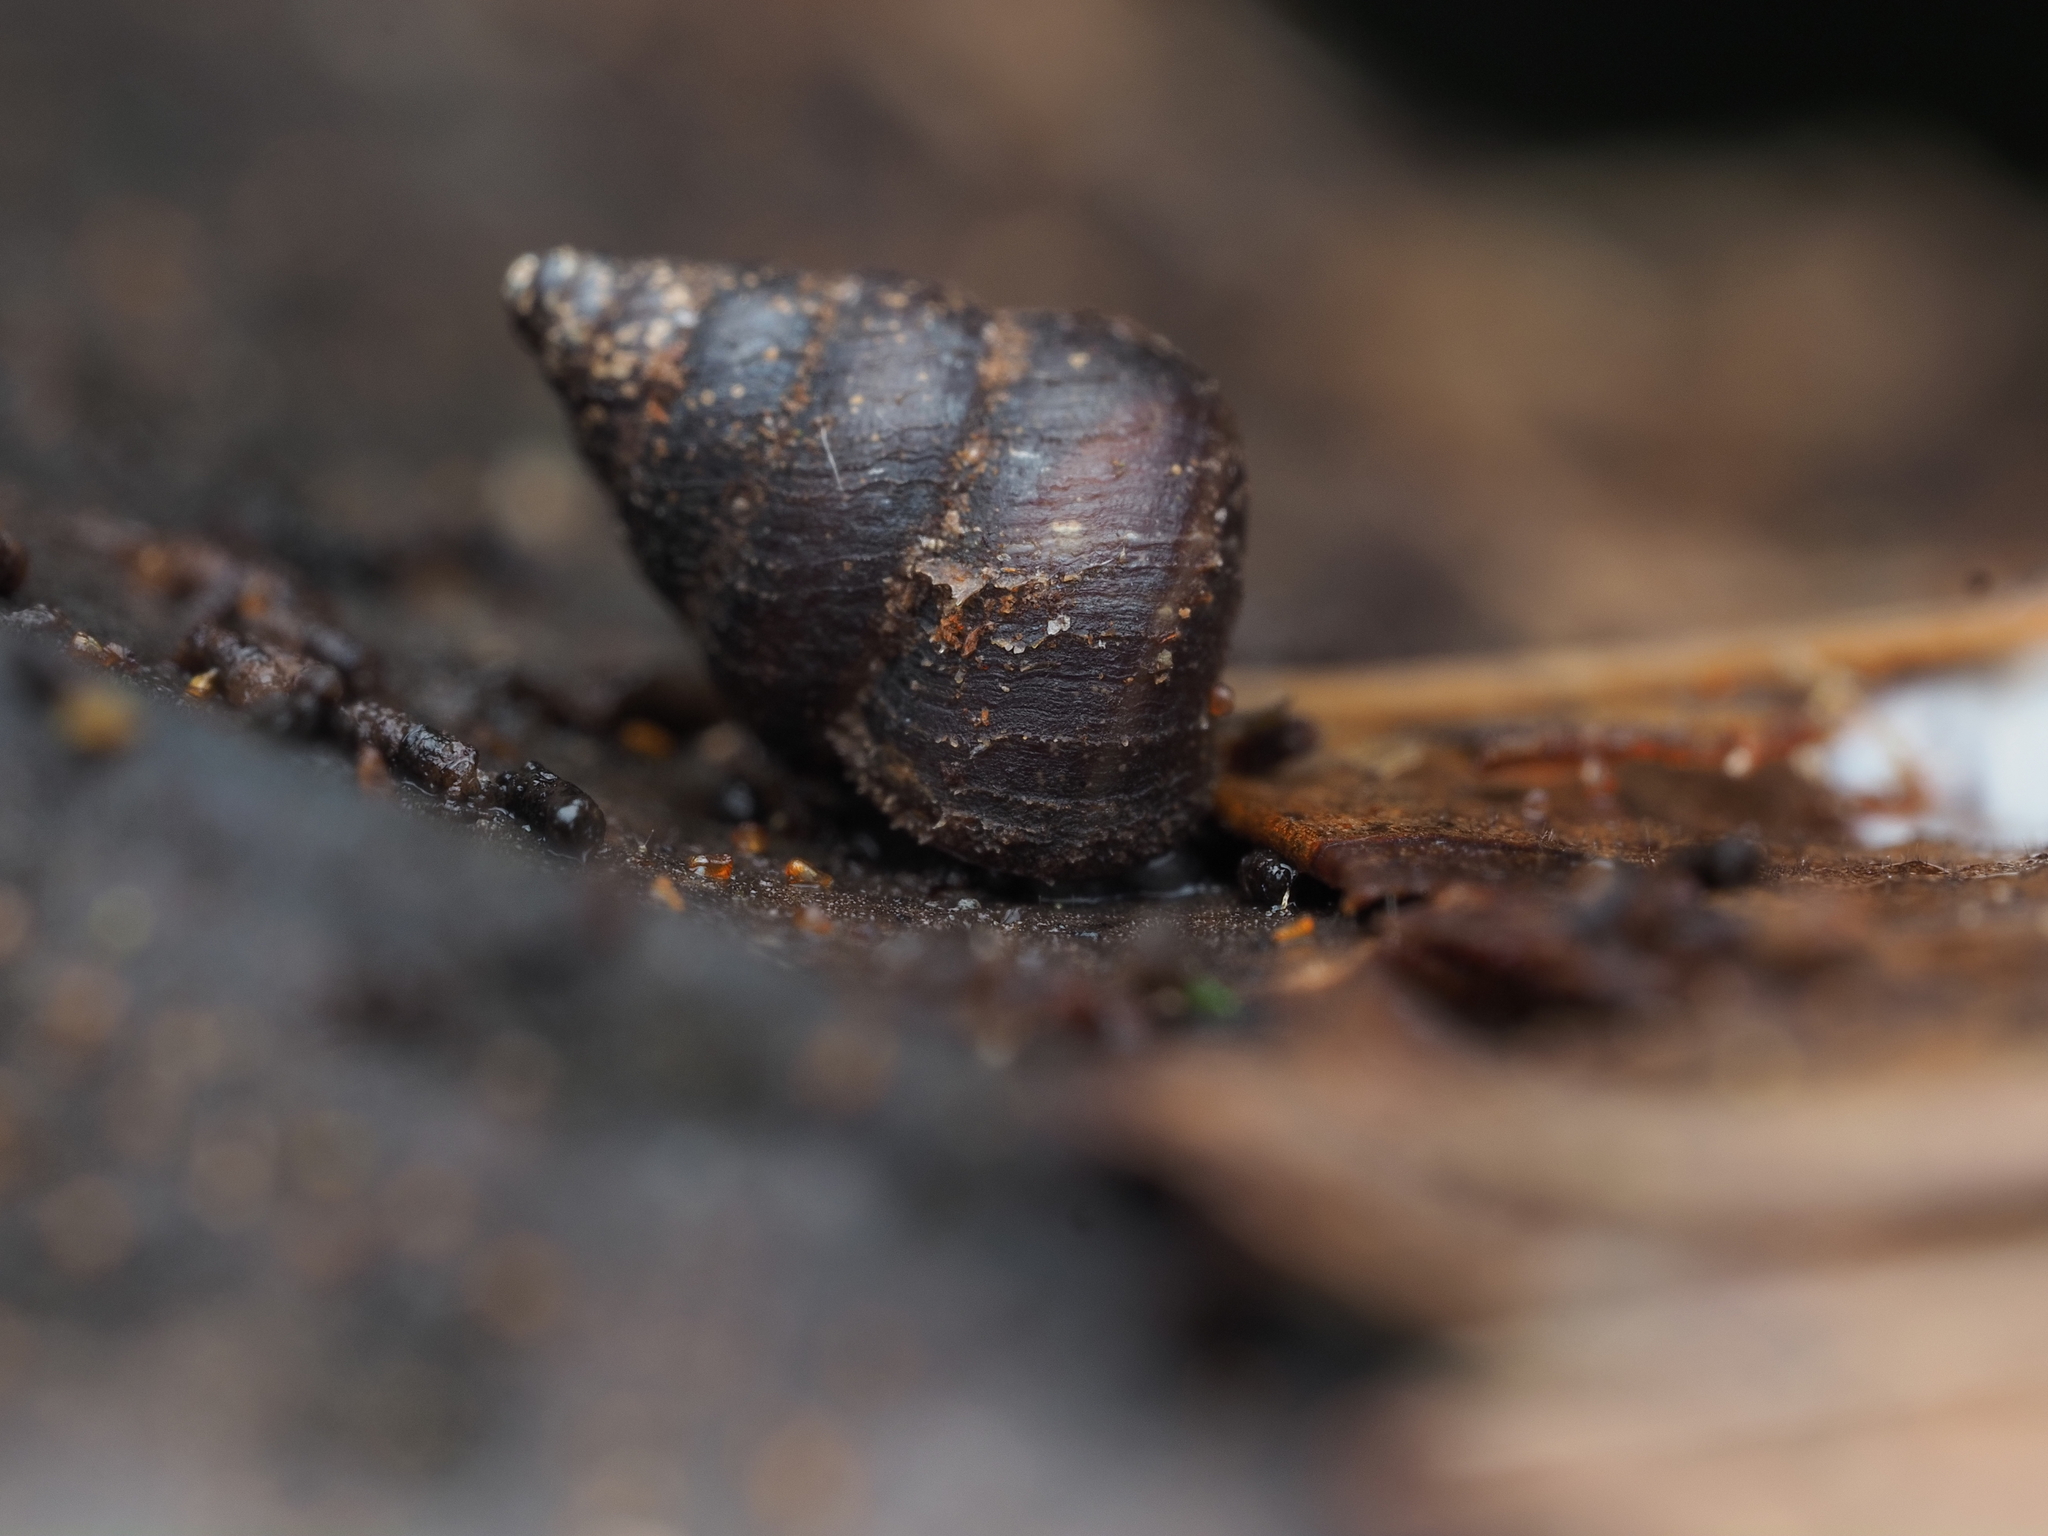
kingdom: Animalia
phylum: Mollusca
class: Gastropoda
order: Architaenioglossa
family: Pupinidae
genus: Cytora
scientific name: Cytora pallida
